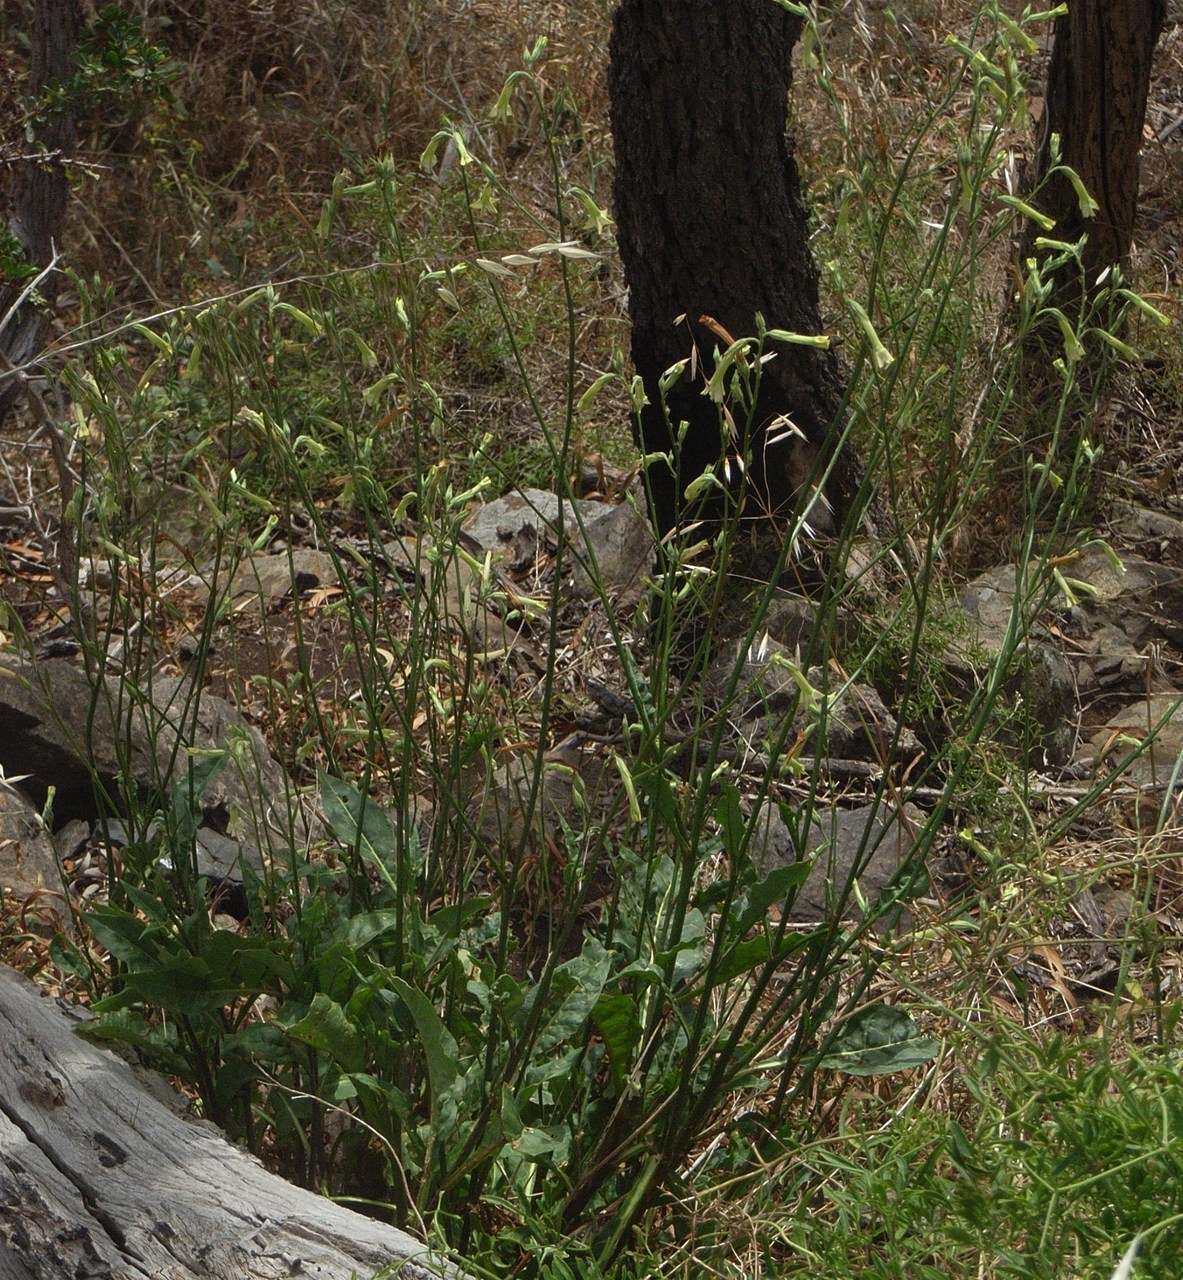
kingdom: Plantae
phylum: Tracheophyta
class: Magnoliopsida
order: Solanales
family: Solanaceae
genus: Nicotiana
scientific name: Nicotiana suaveolens
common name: Australian tobacco
